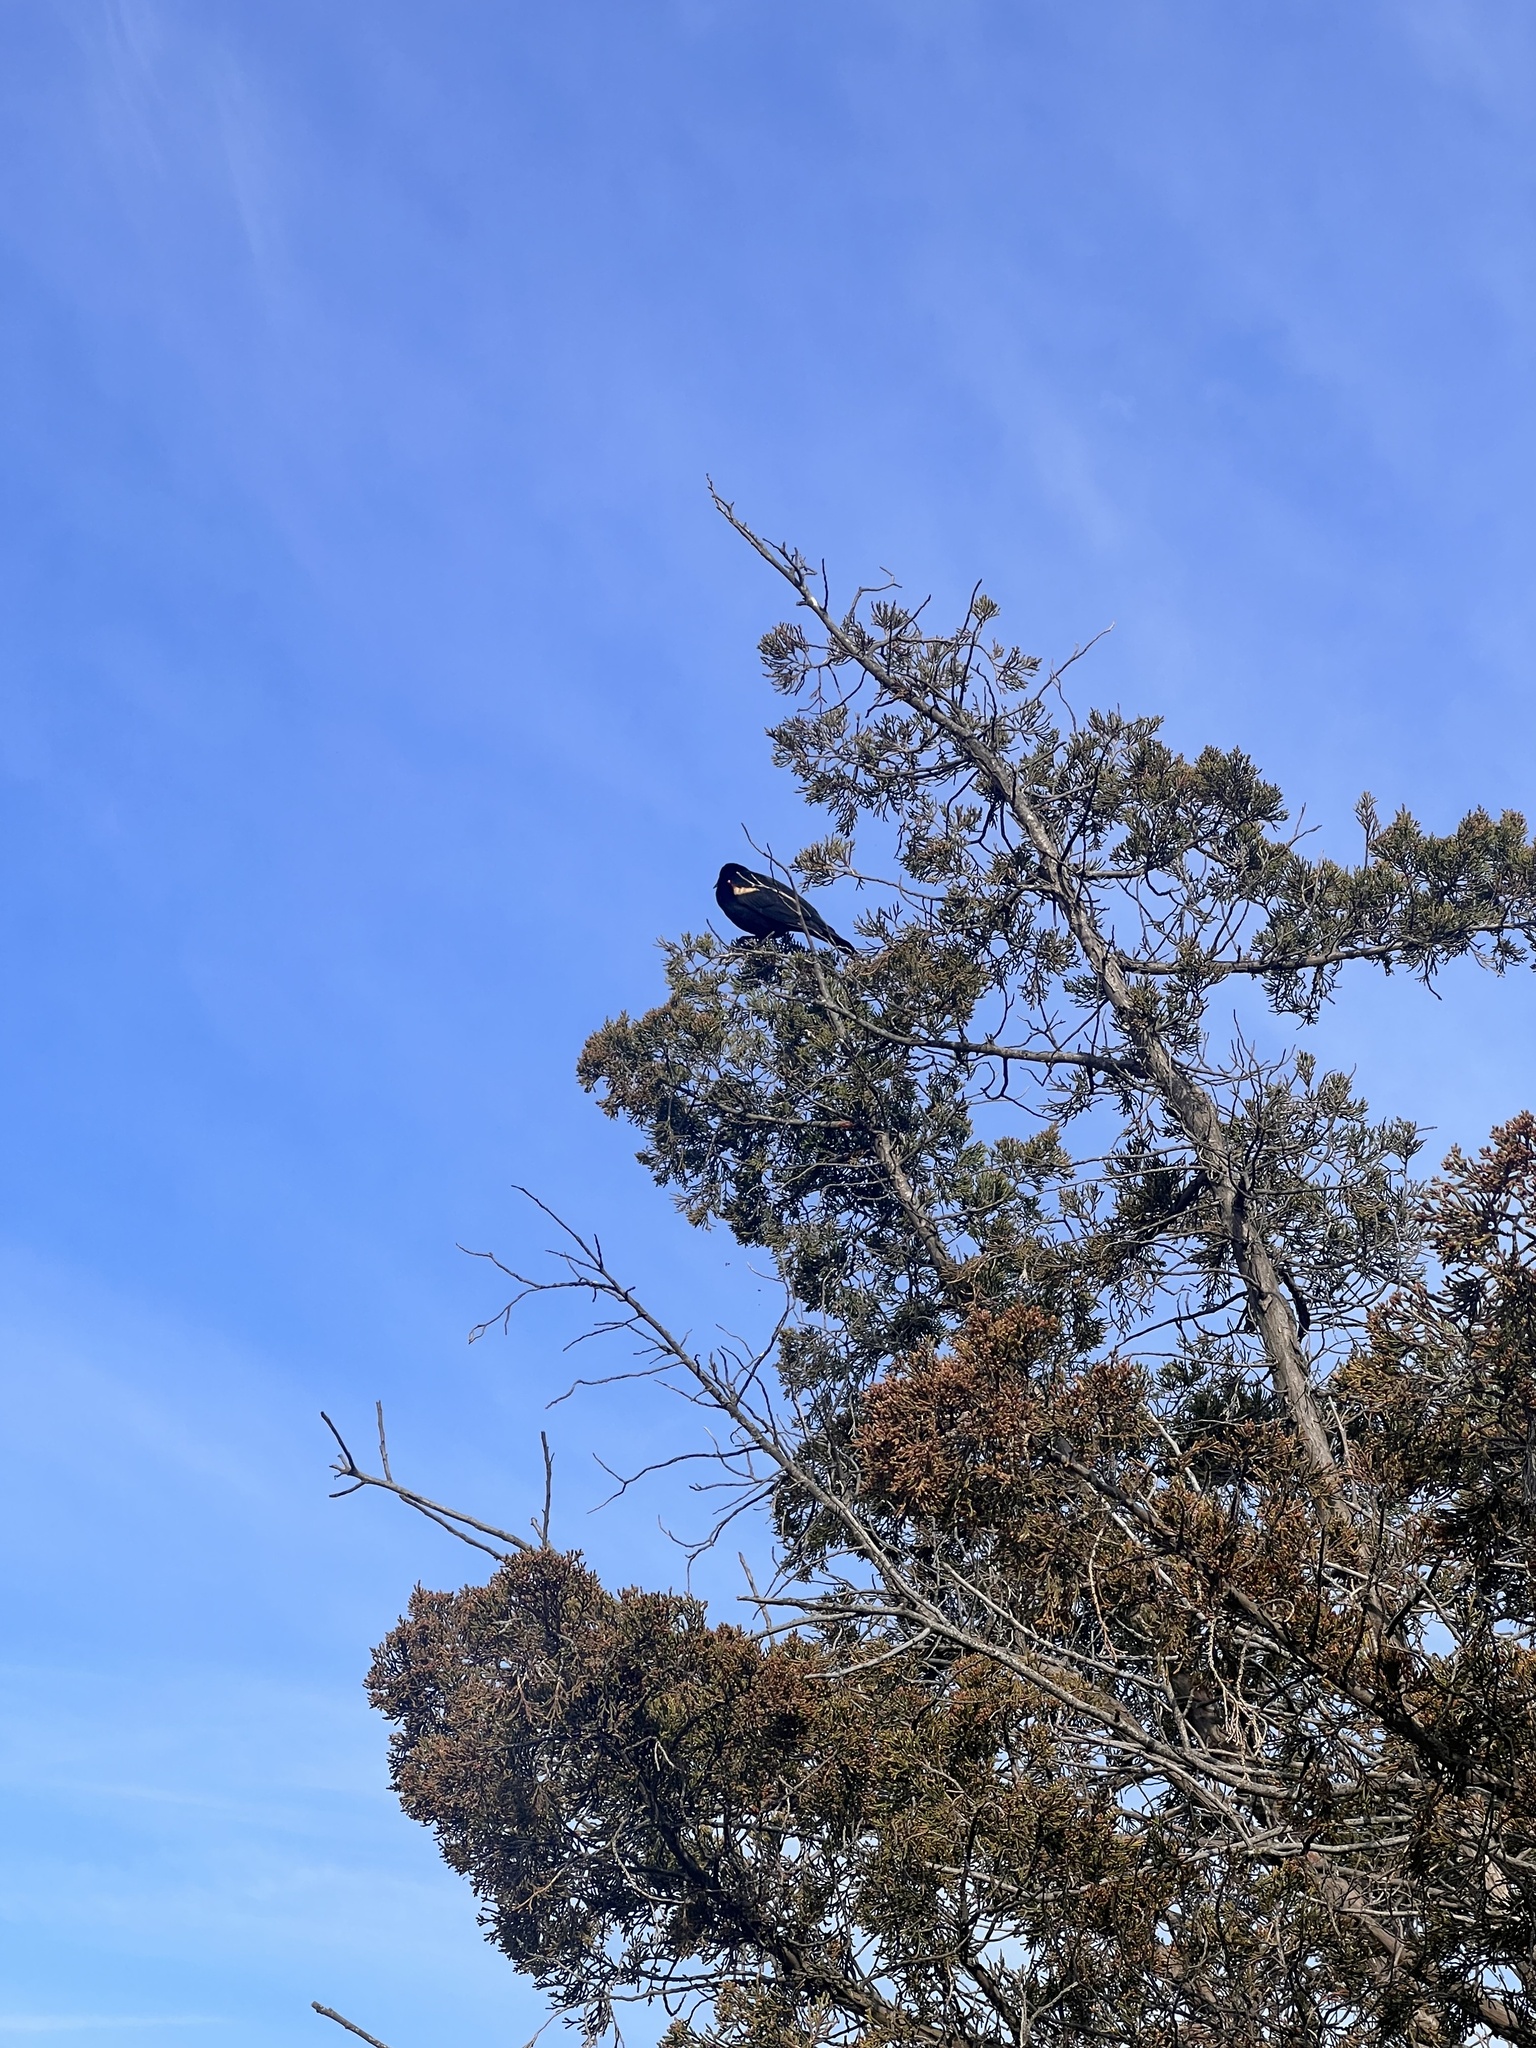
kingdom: Animalia
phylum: Chordata
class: Aves
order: Passeriformes
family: Icteridae
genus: Agelaius
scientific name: Agelaius phoeniceus
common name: Red-winged blackbird
